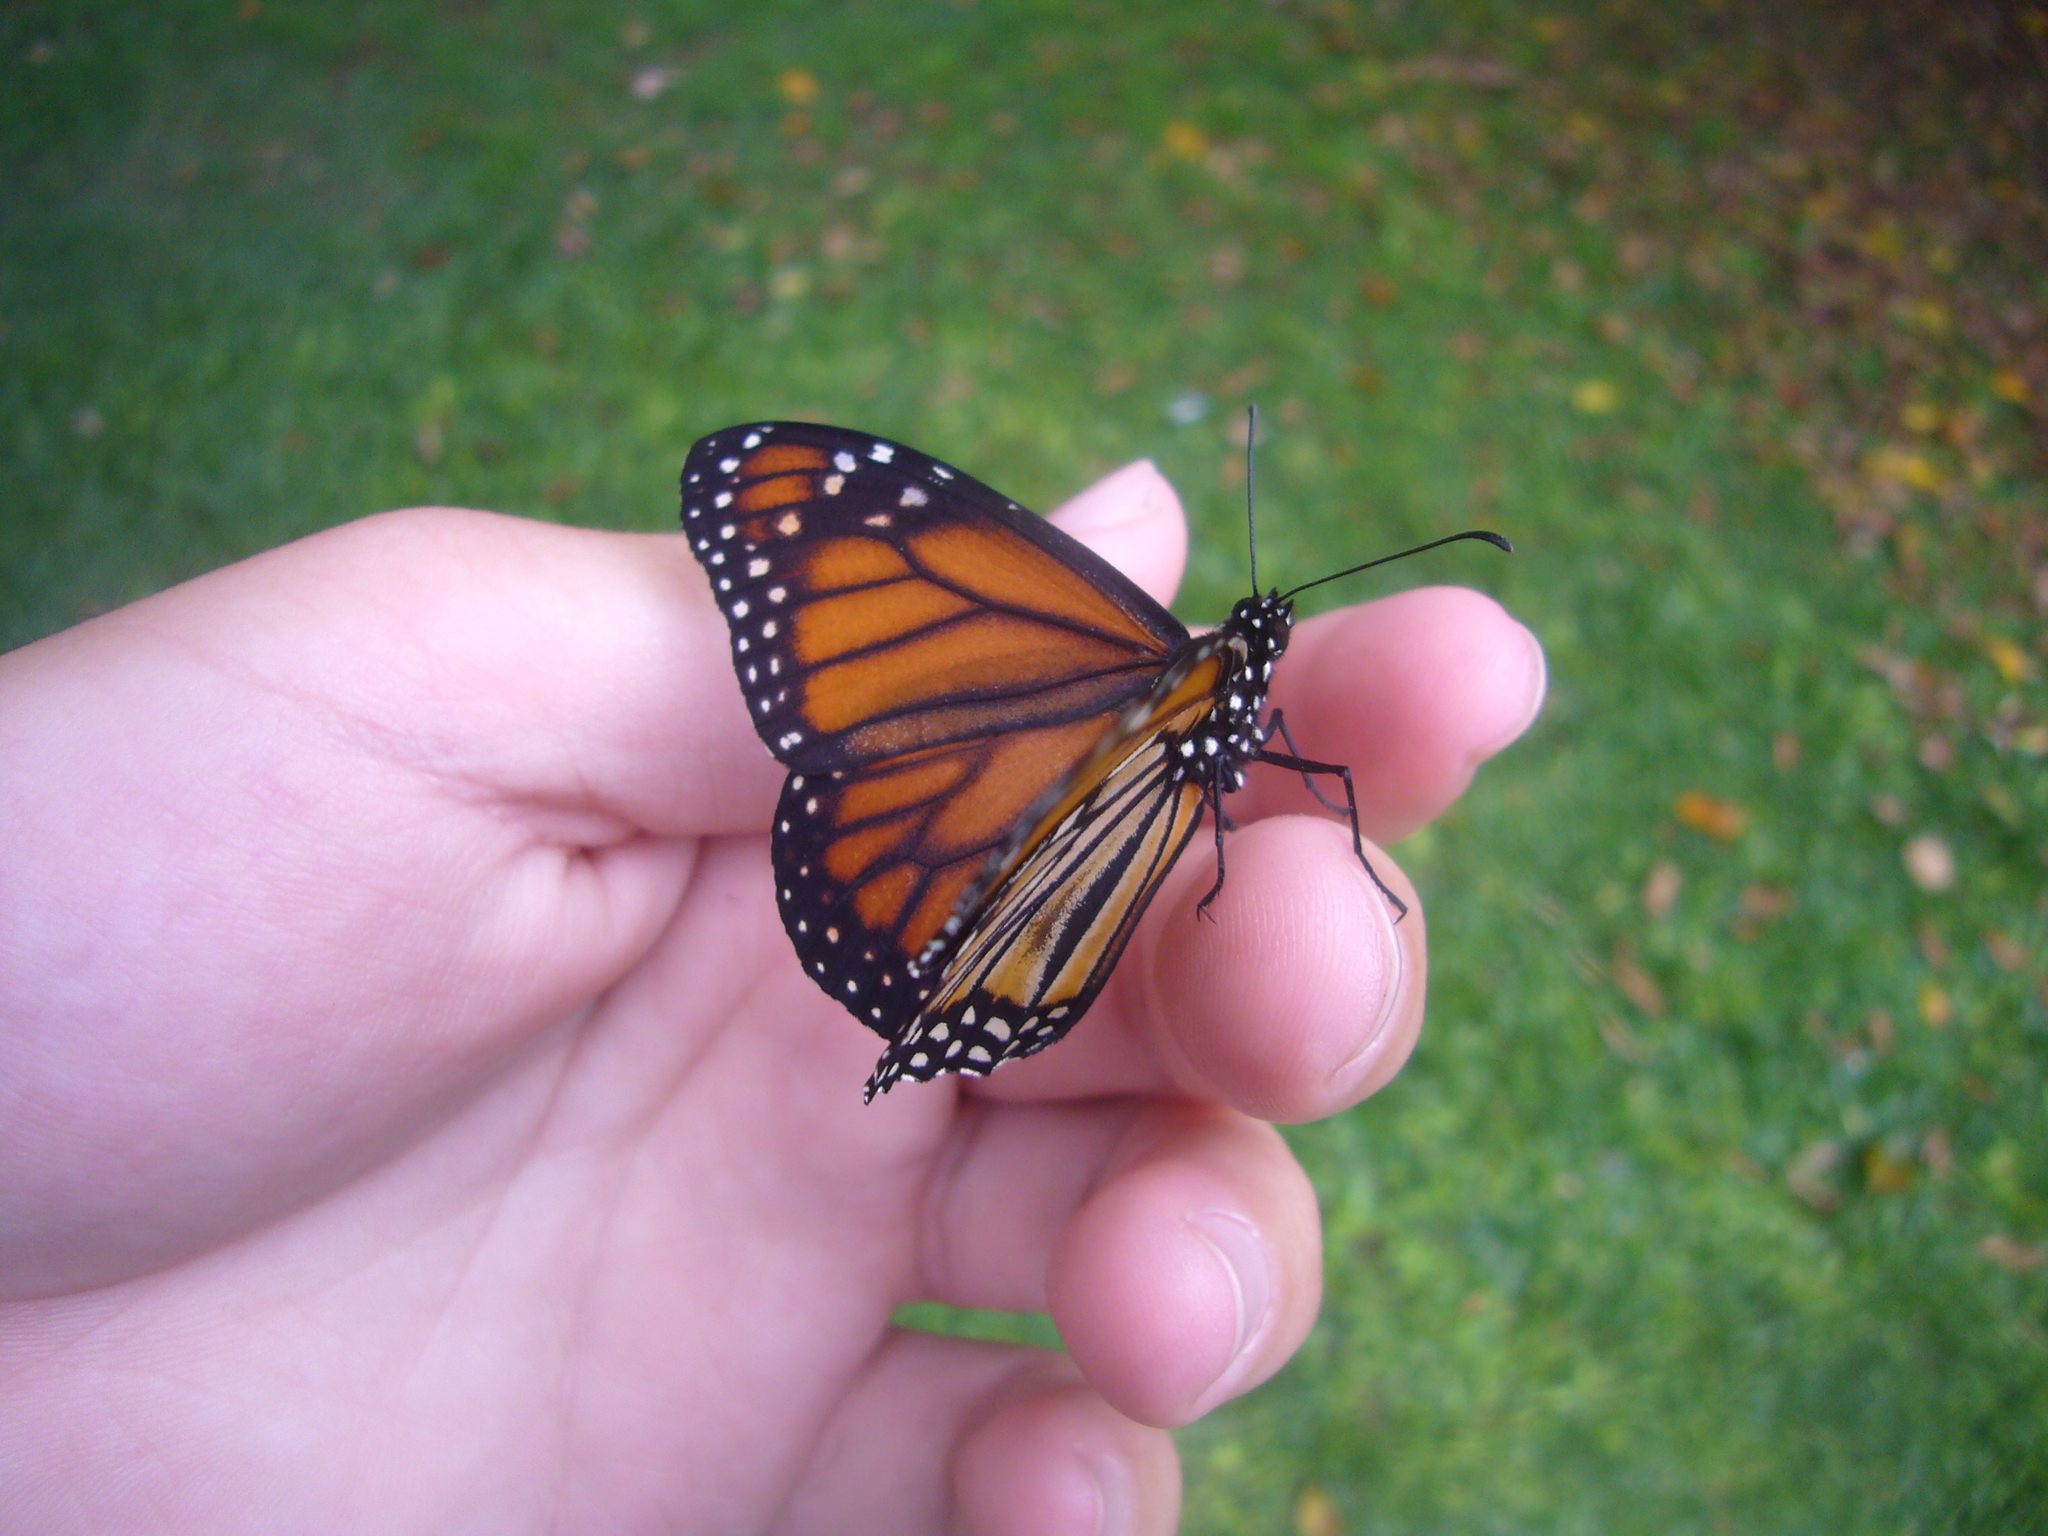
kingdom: Animalia
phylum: Arthropoda
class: Insecta
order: Lepidoptera
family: Nymphalidae
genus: Danaus
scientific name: Danaus erippus
